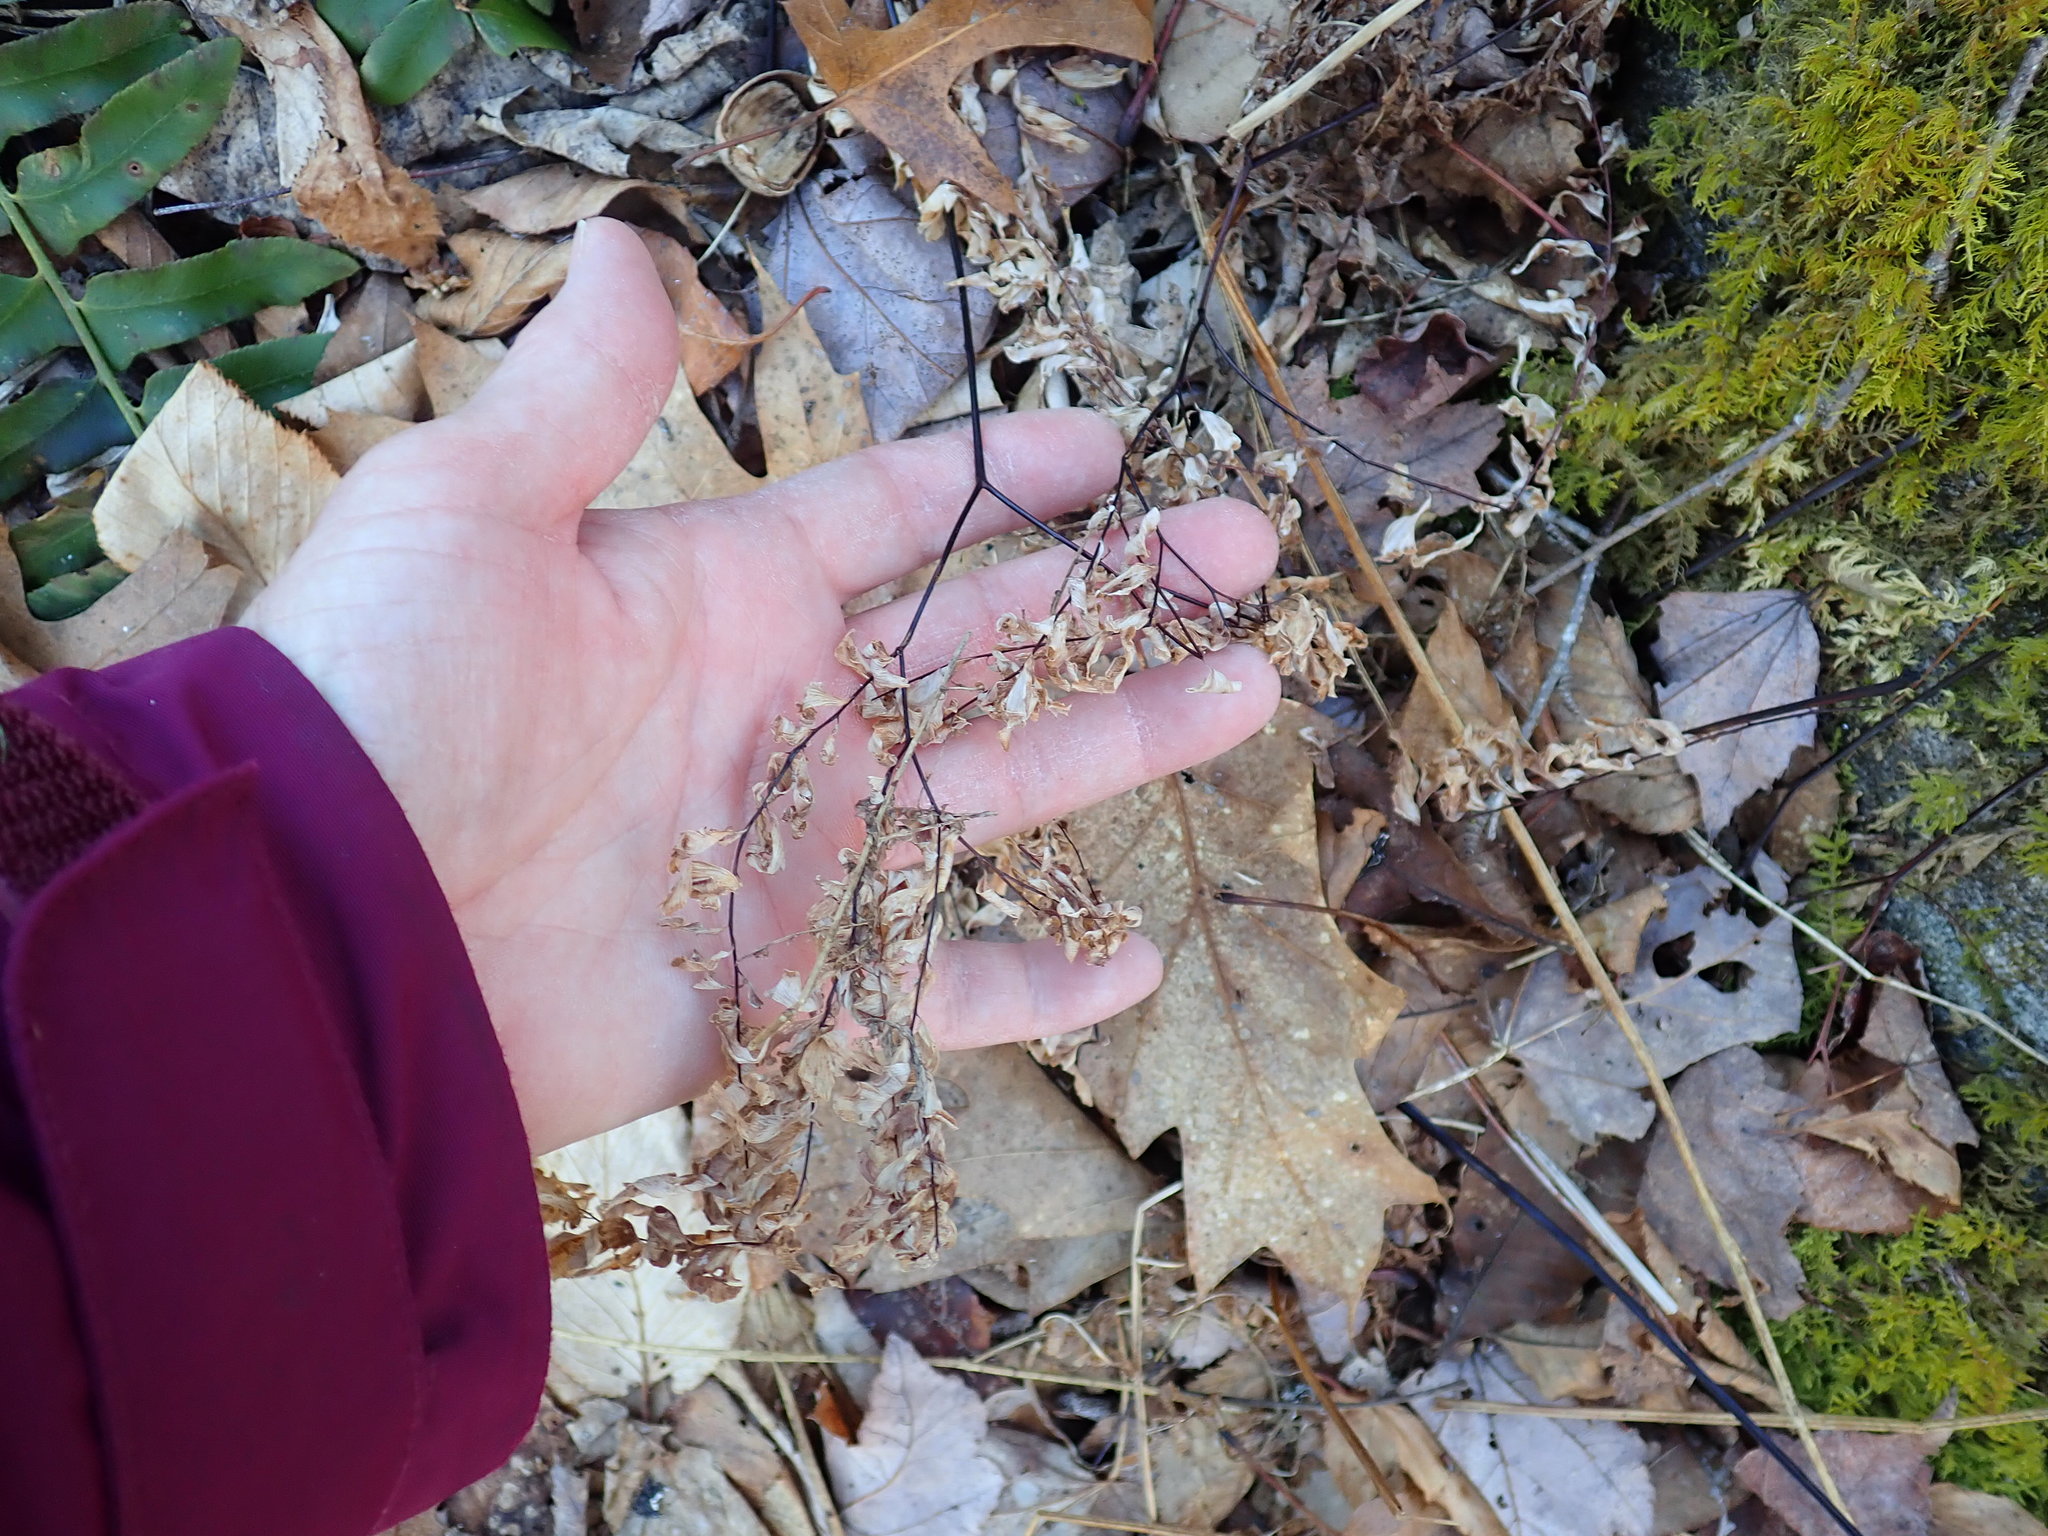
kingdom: Plantae
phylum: Tracheophyta
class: Polypodiopsida
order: Polypodiales
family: Pteridaceae
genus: Adiantum
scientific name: Adiantum pedatum
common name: Five-finger fern
